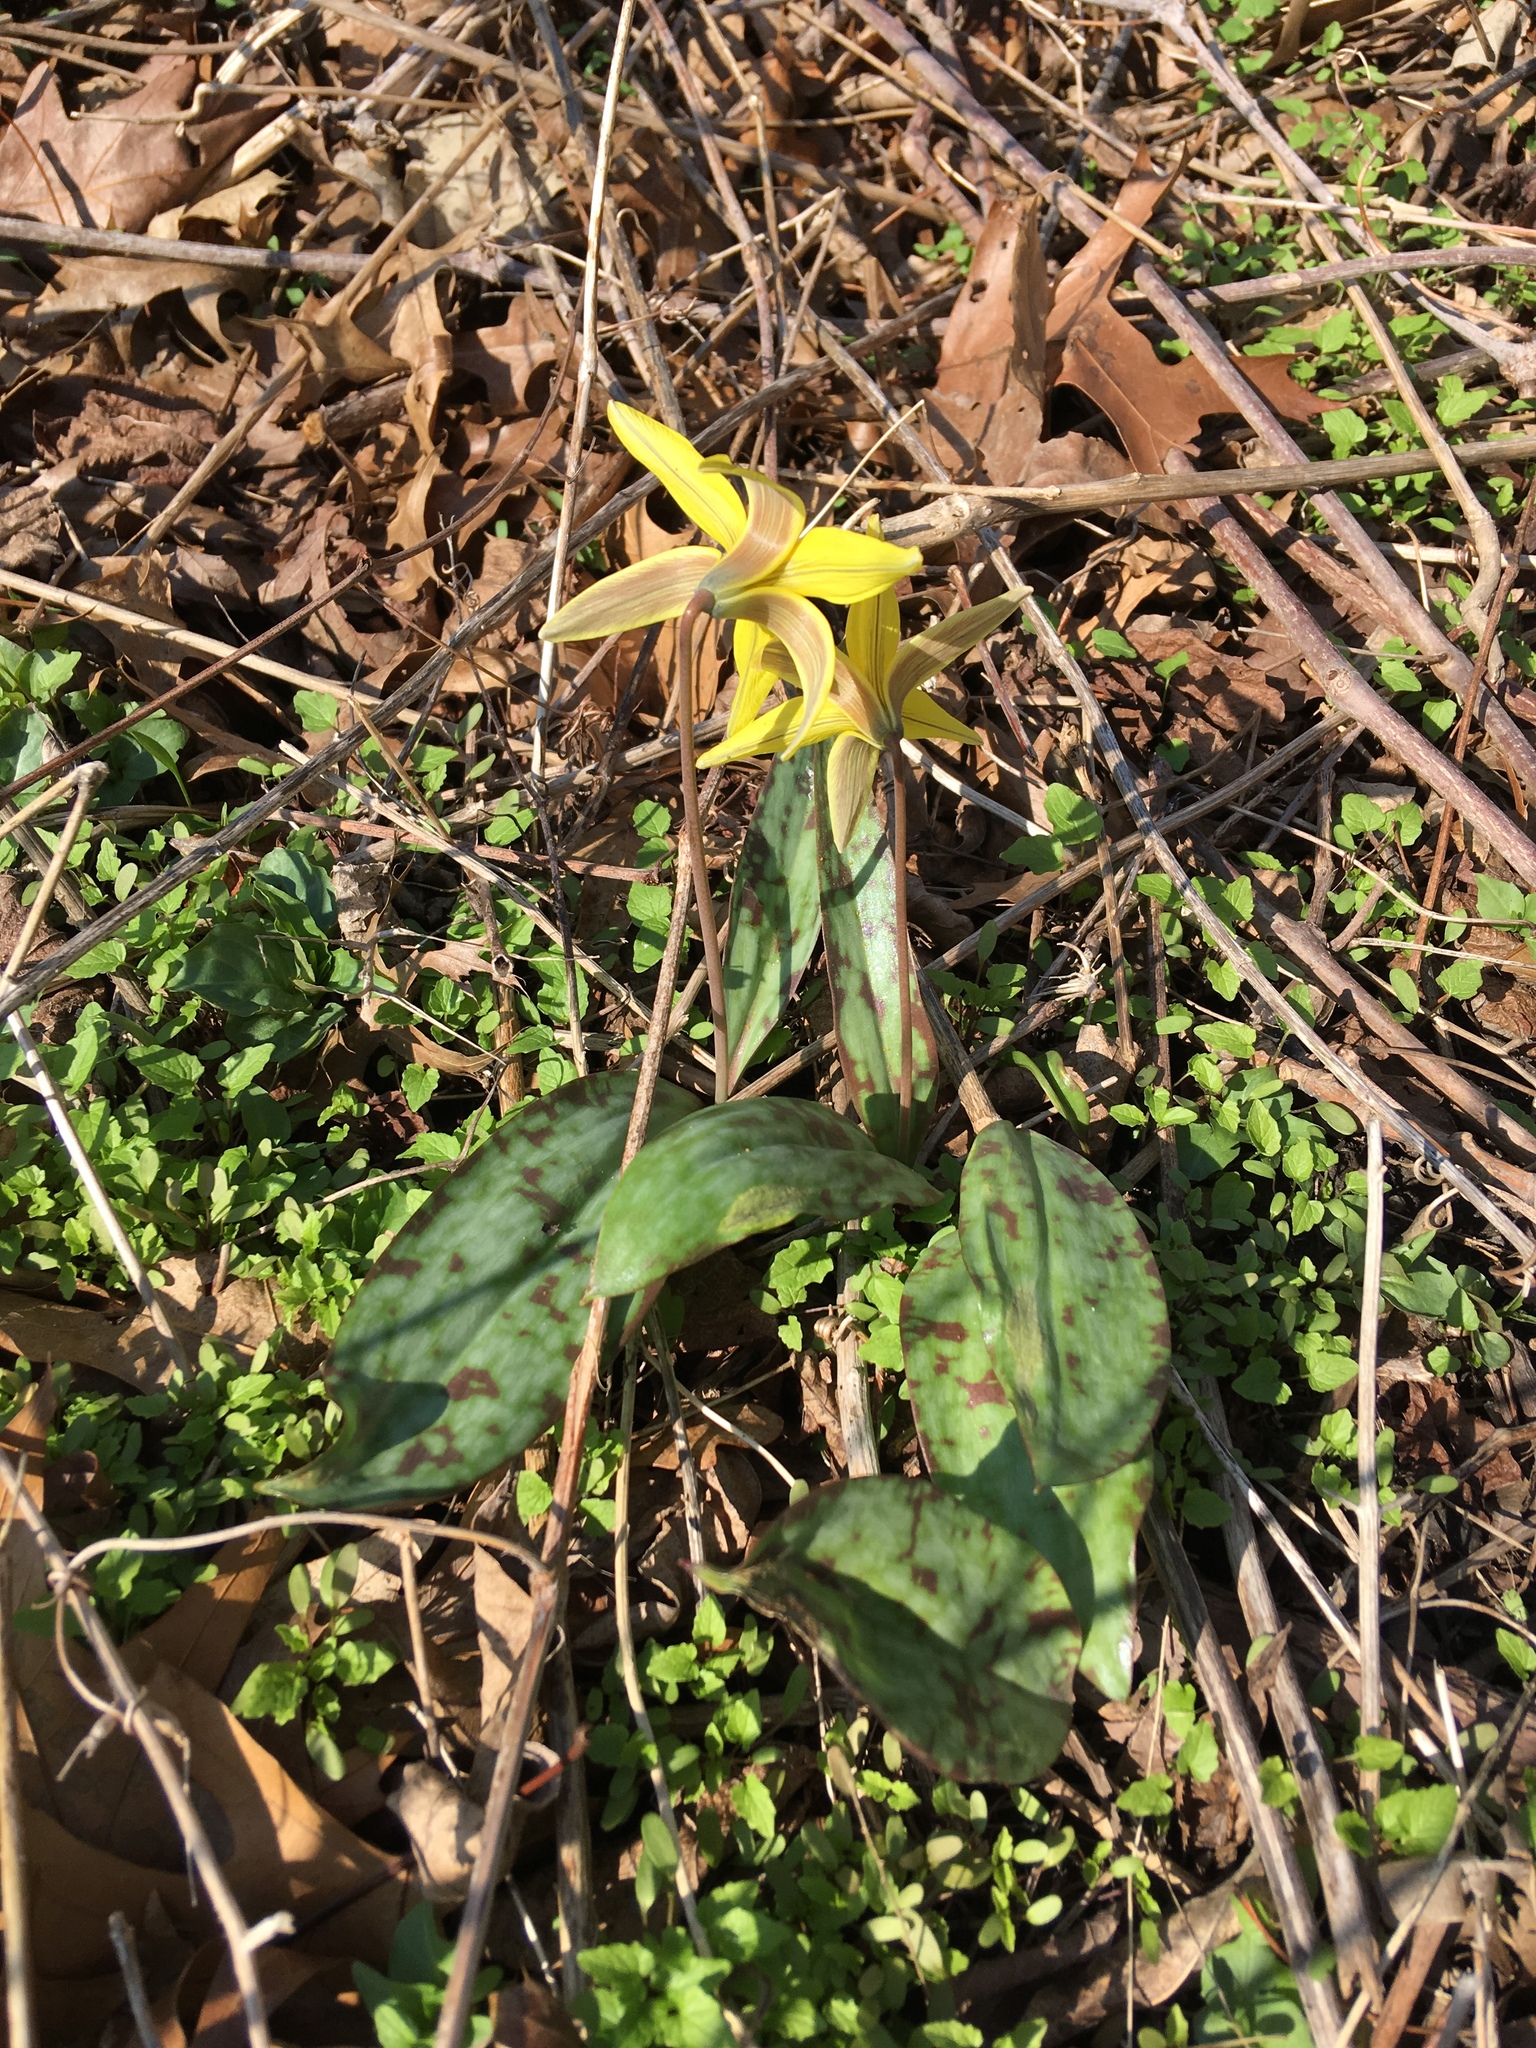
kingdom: Plantae
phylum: Tracheophyta
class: Liliopsida
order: Liliales
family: Liliaceae
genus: Erythronium
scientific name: Erythronium americanum
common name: Yellow adder's-tongue
